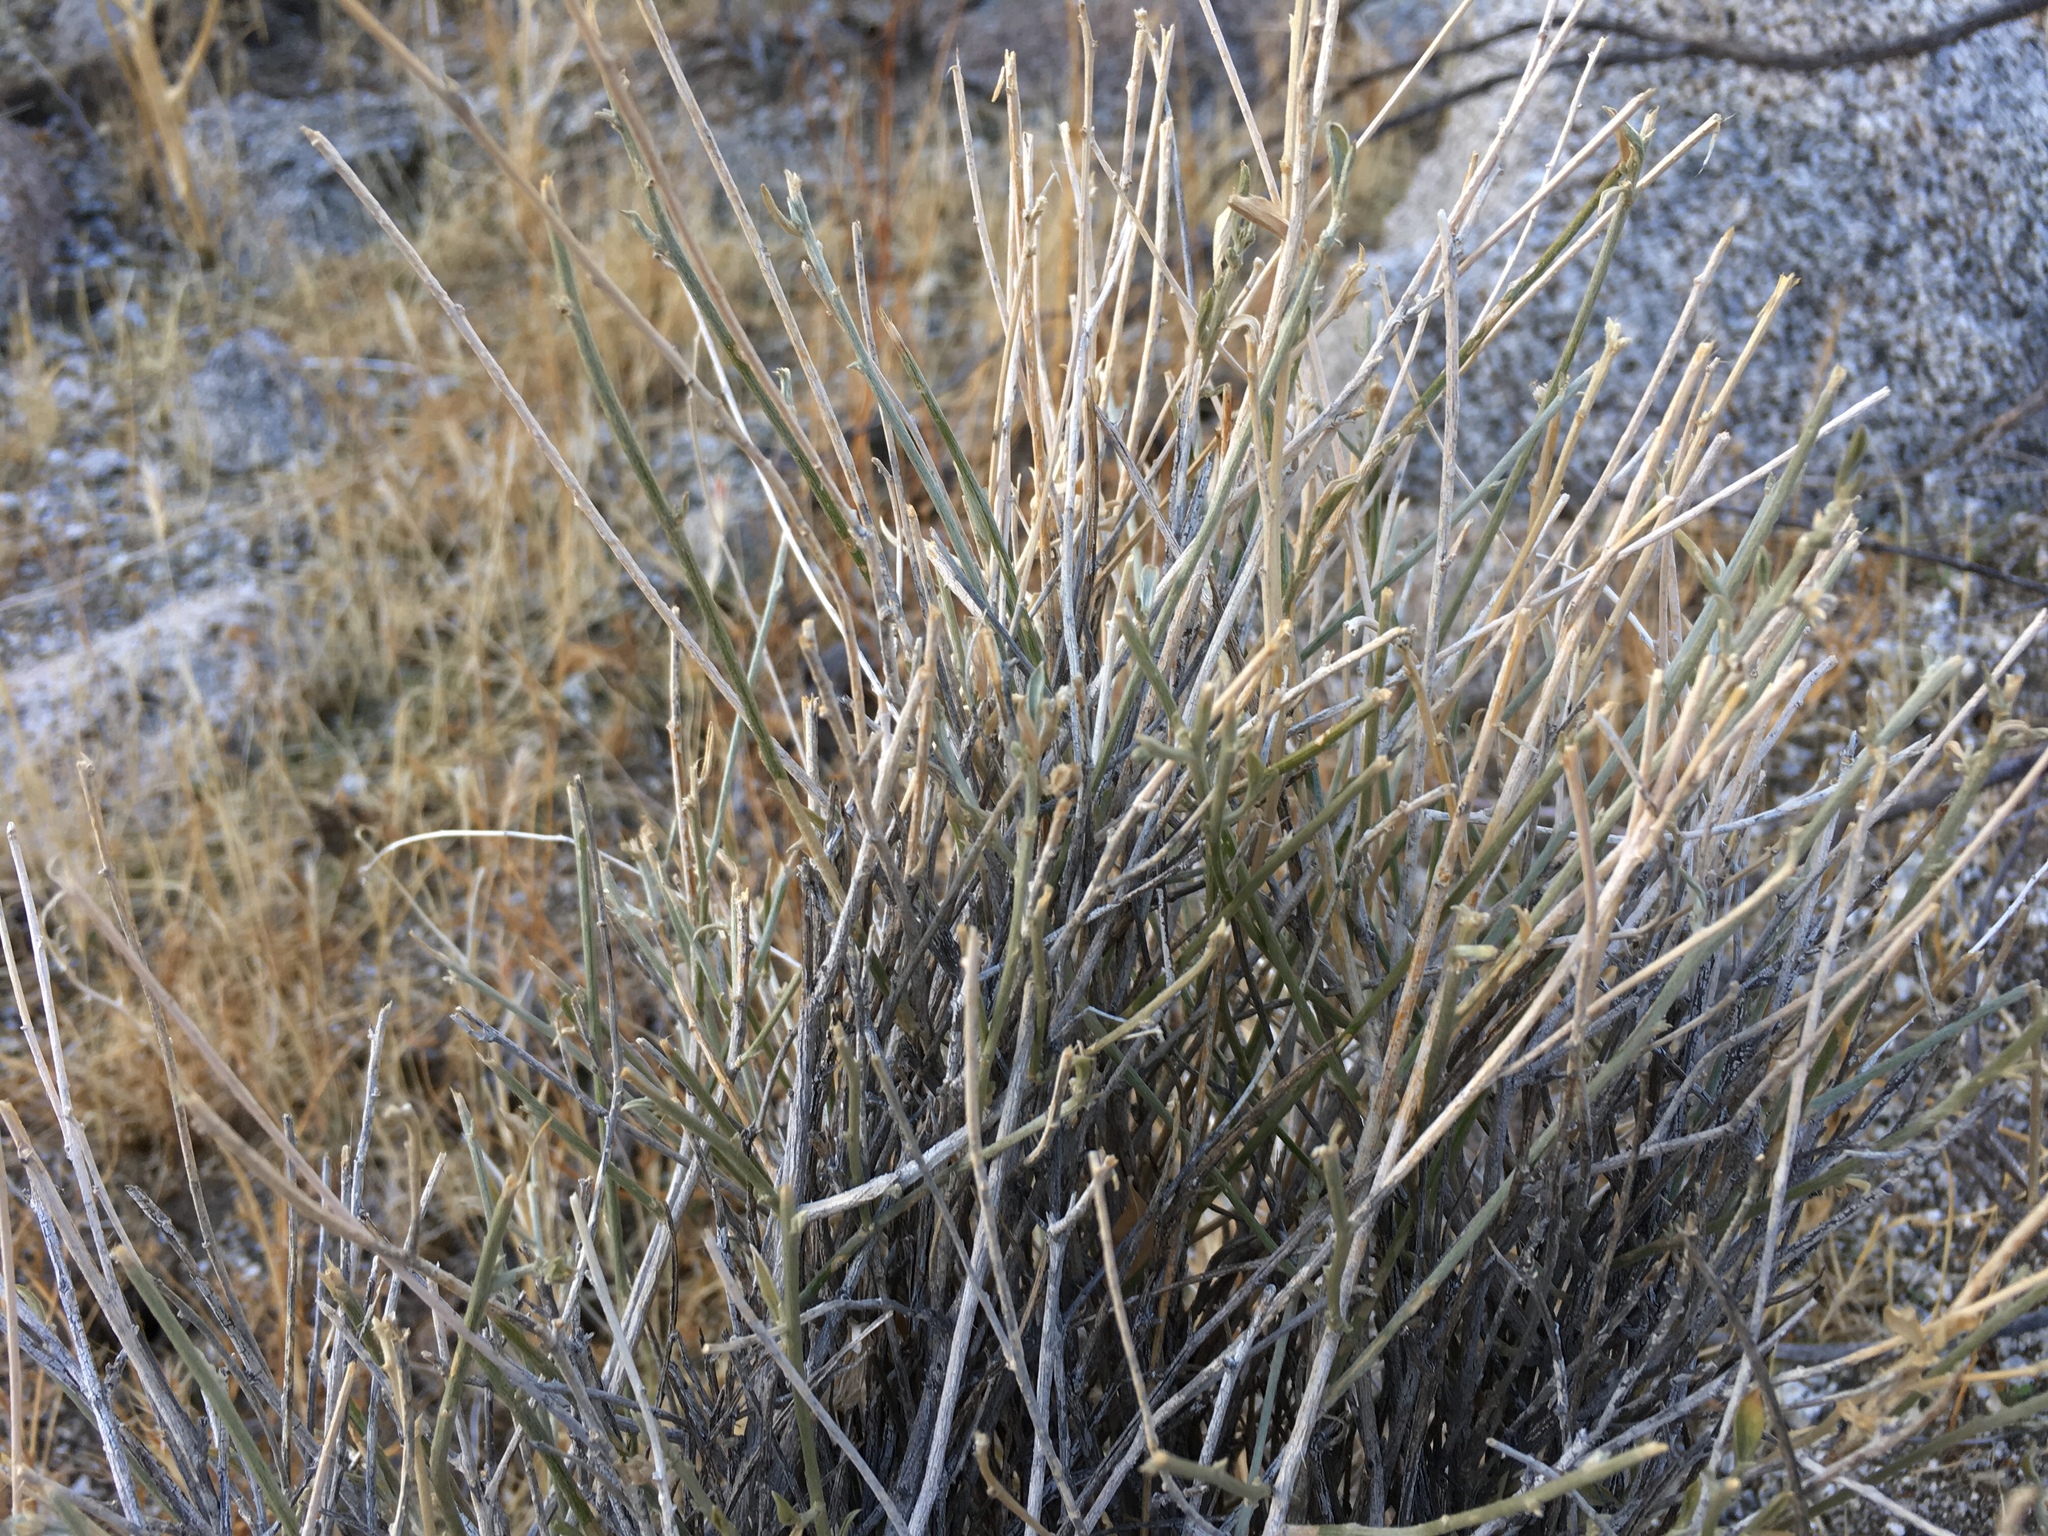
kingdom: Plantae
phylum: Tracheophyta
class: Magnoliopsida
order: Malpighiales
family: Euphorbiaceae
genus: Ditaxis
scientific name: Ditaxis lanceolata
